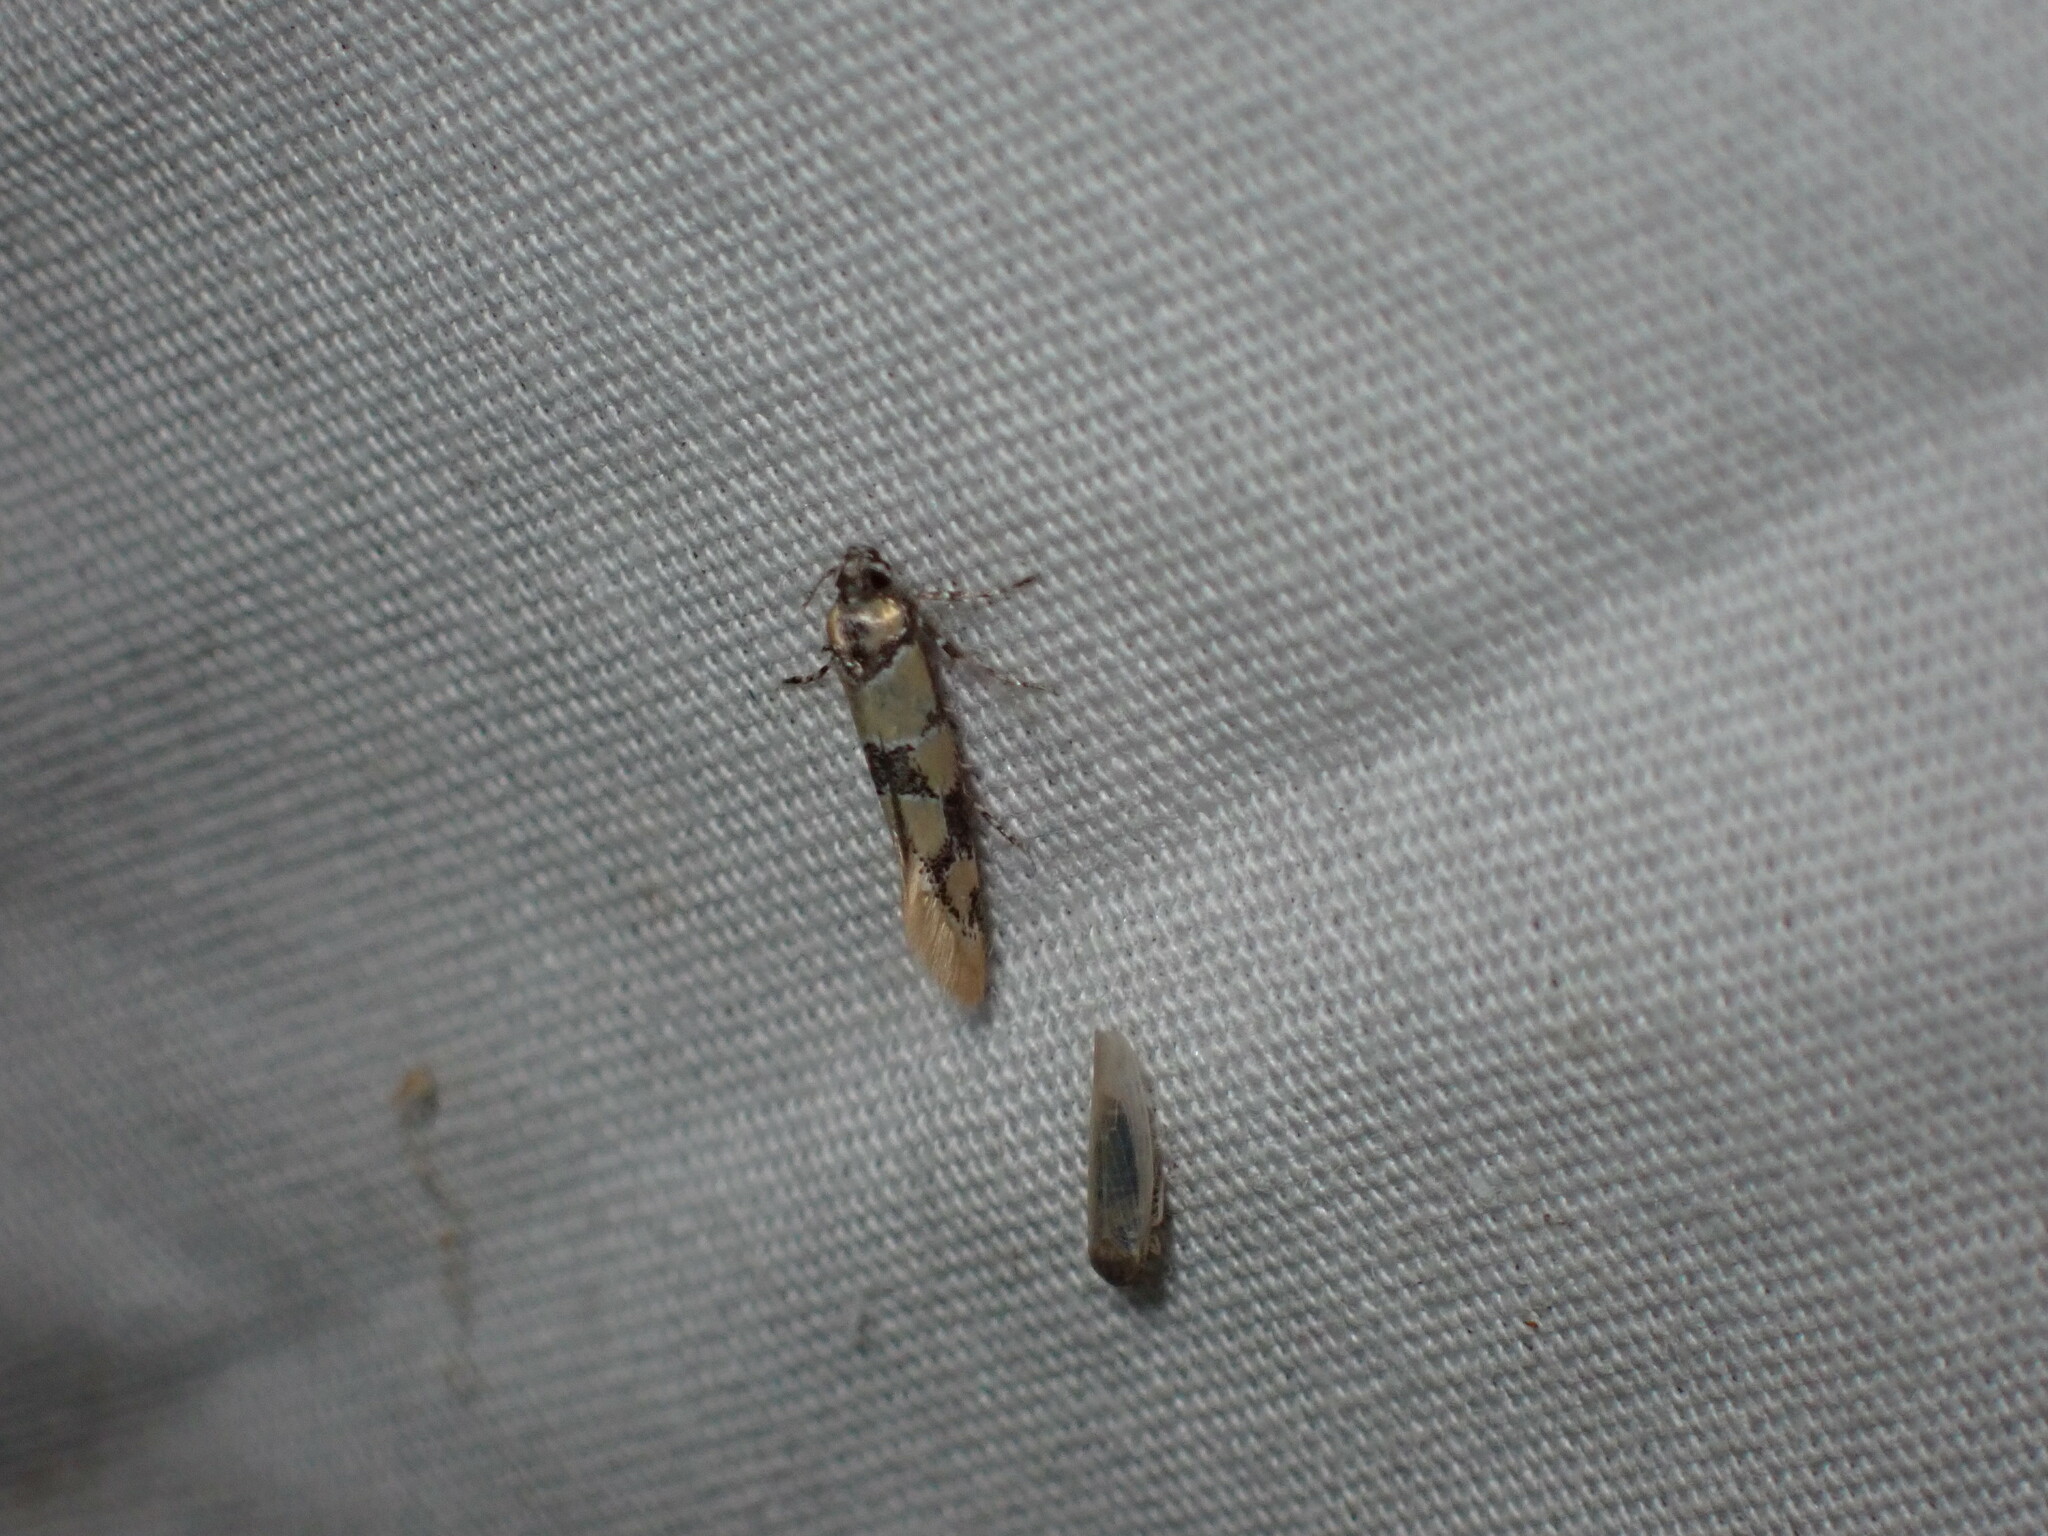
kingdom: Animalia
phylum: Arthropoda
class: Insecta
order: Lepidoptera
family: Oecophoridae
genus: Decantha
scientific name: Decantha stonda
